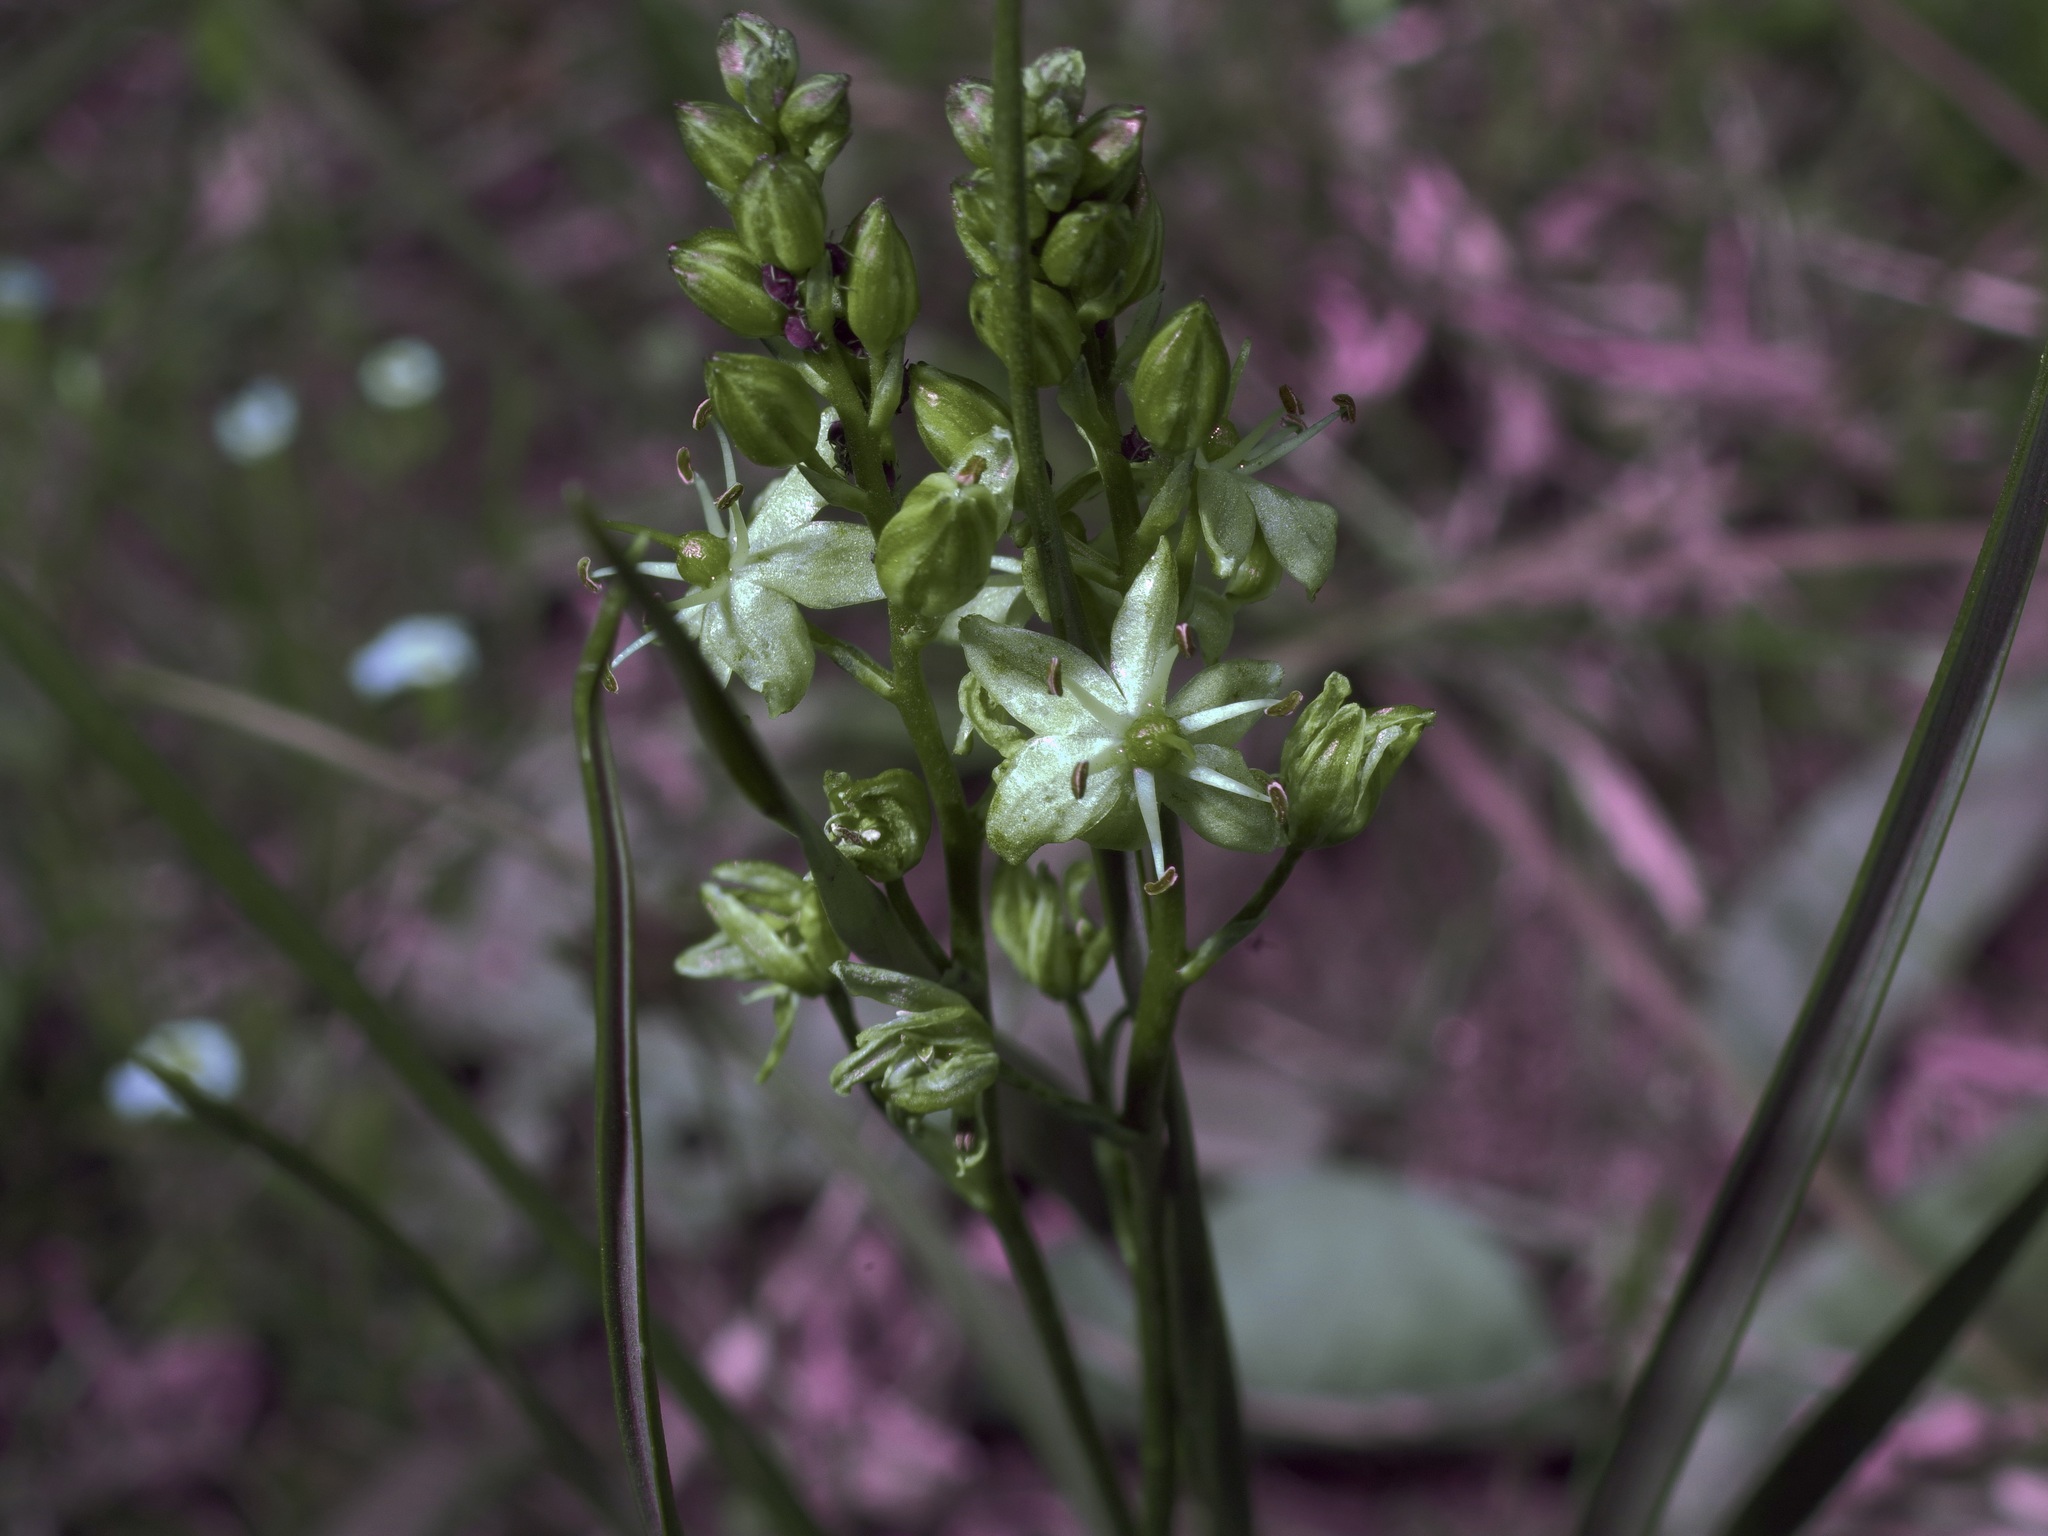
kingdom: Plantae
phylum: Tracheophyta
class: Liliopsida
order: Asparagales
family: Asparagaceae
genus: Schoenolirion
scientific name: Schoenolirion wrightii
